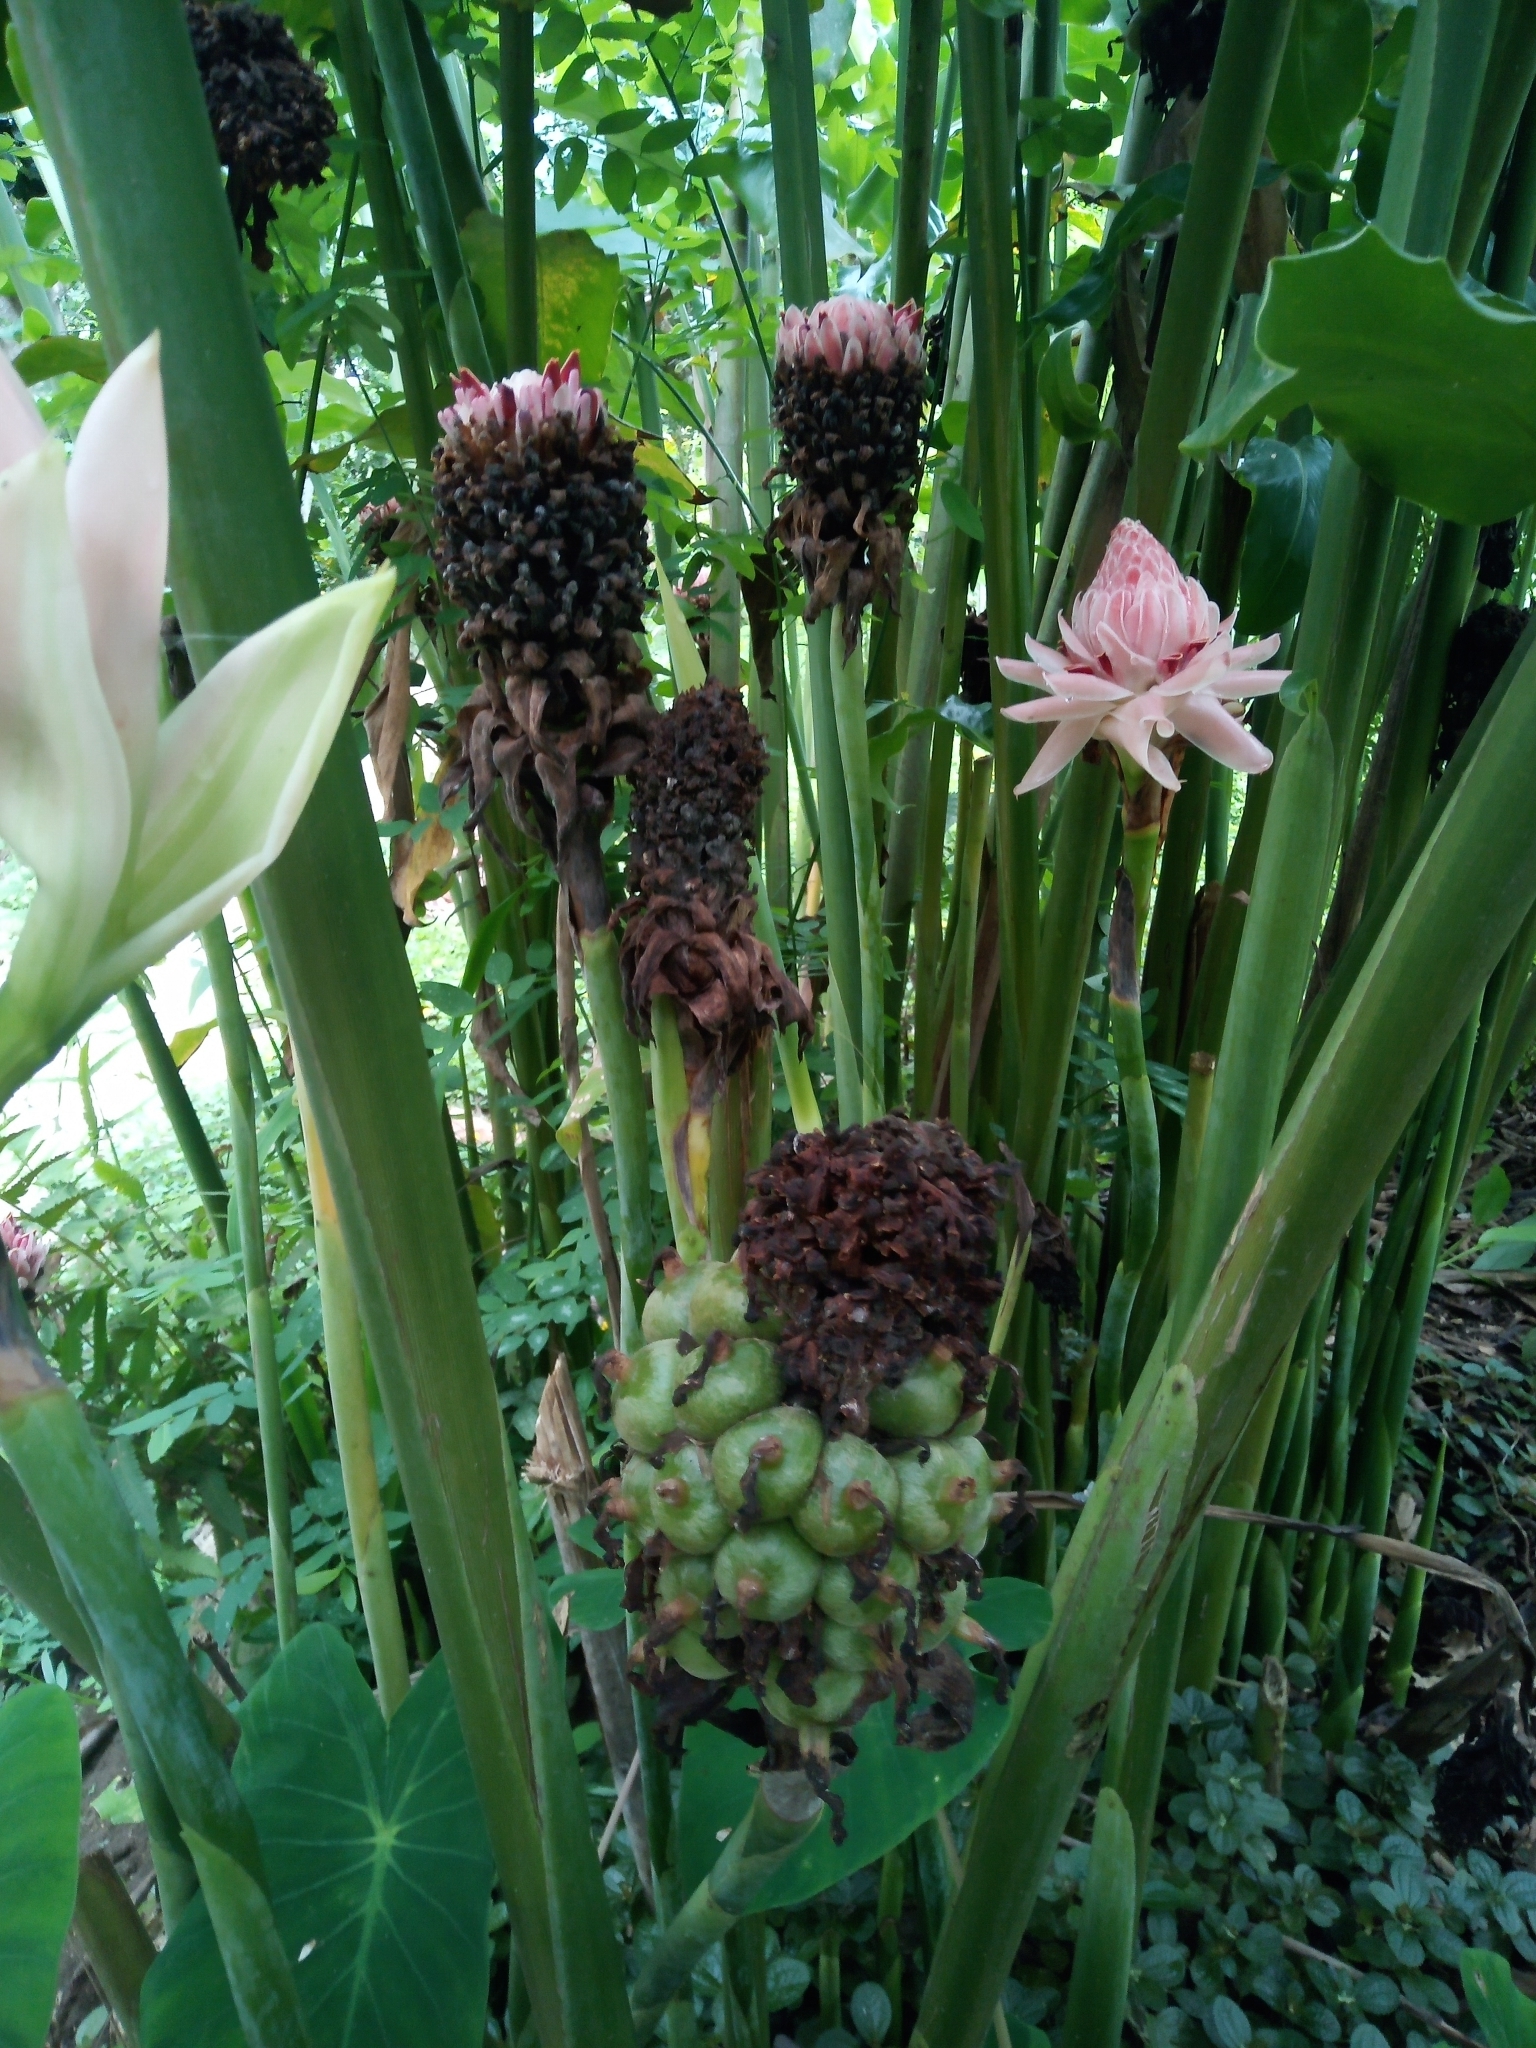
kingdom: Plantae
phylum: Tracheophyta
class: Liliopsida
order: Zingiberales
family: Zingiberaceae
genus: Etlingera
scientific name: Etlingera elatior
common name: Philippine waxflower
